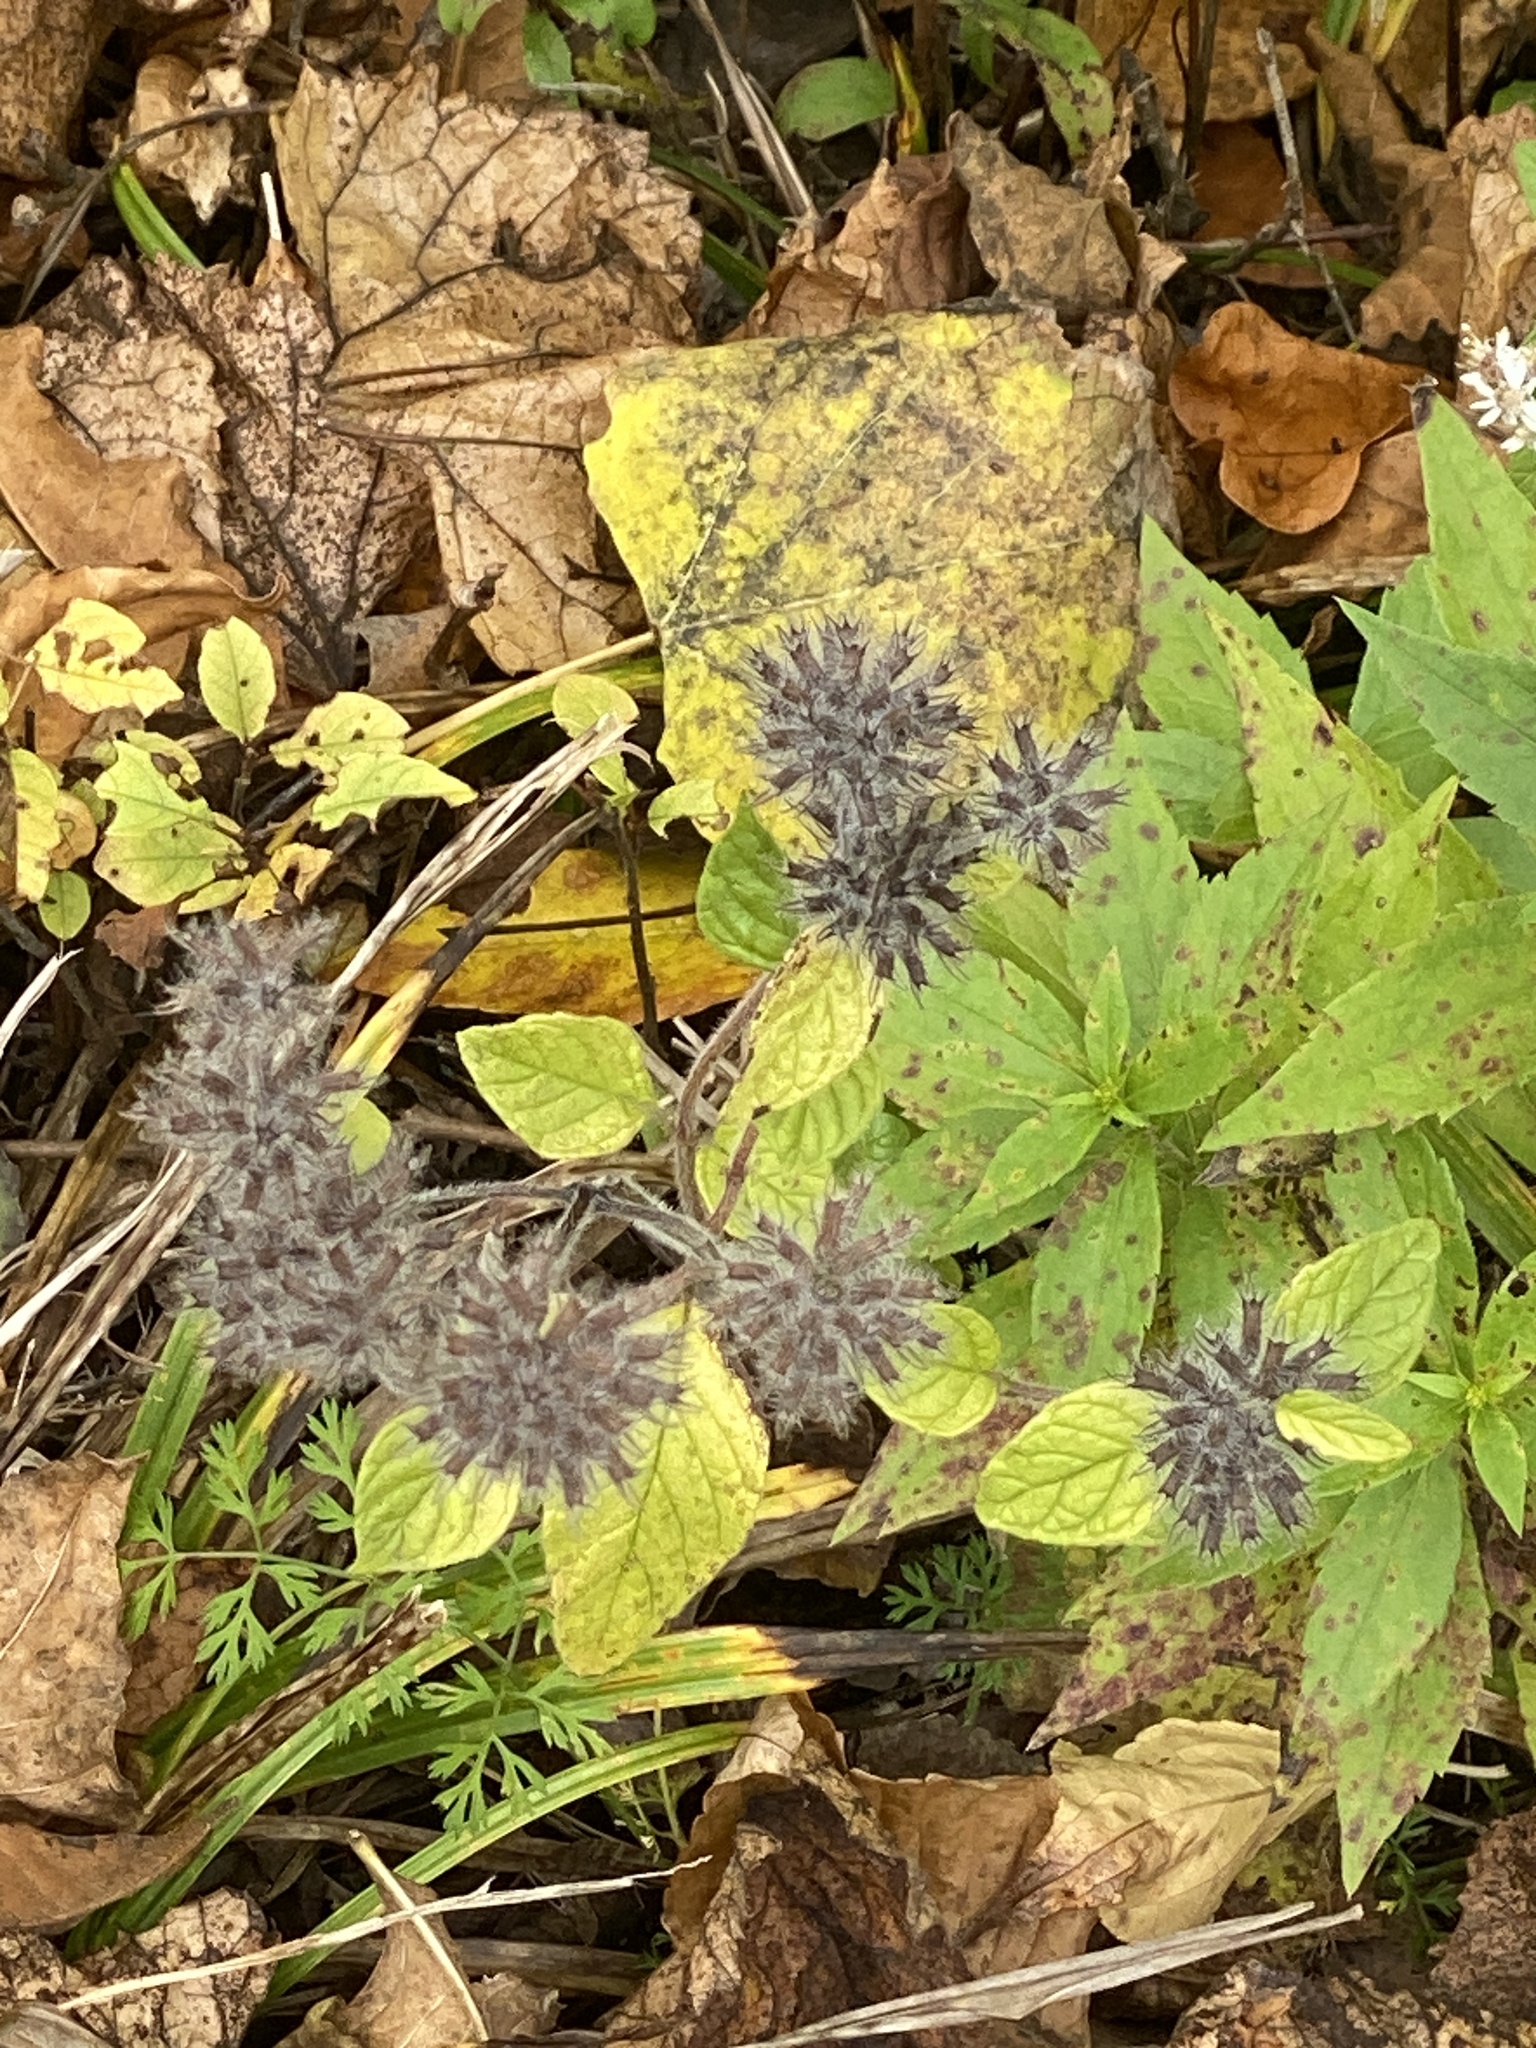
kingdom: Plantae
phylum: Tracheophyta
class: Magnoliopsida
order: Lamiales
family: Lamiaceae
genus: Clinopodium
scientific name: Clinopodium vulgare
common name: Wild basil
